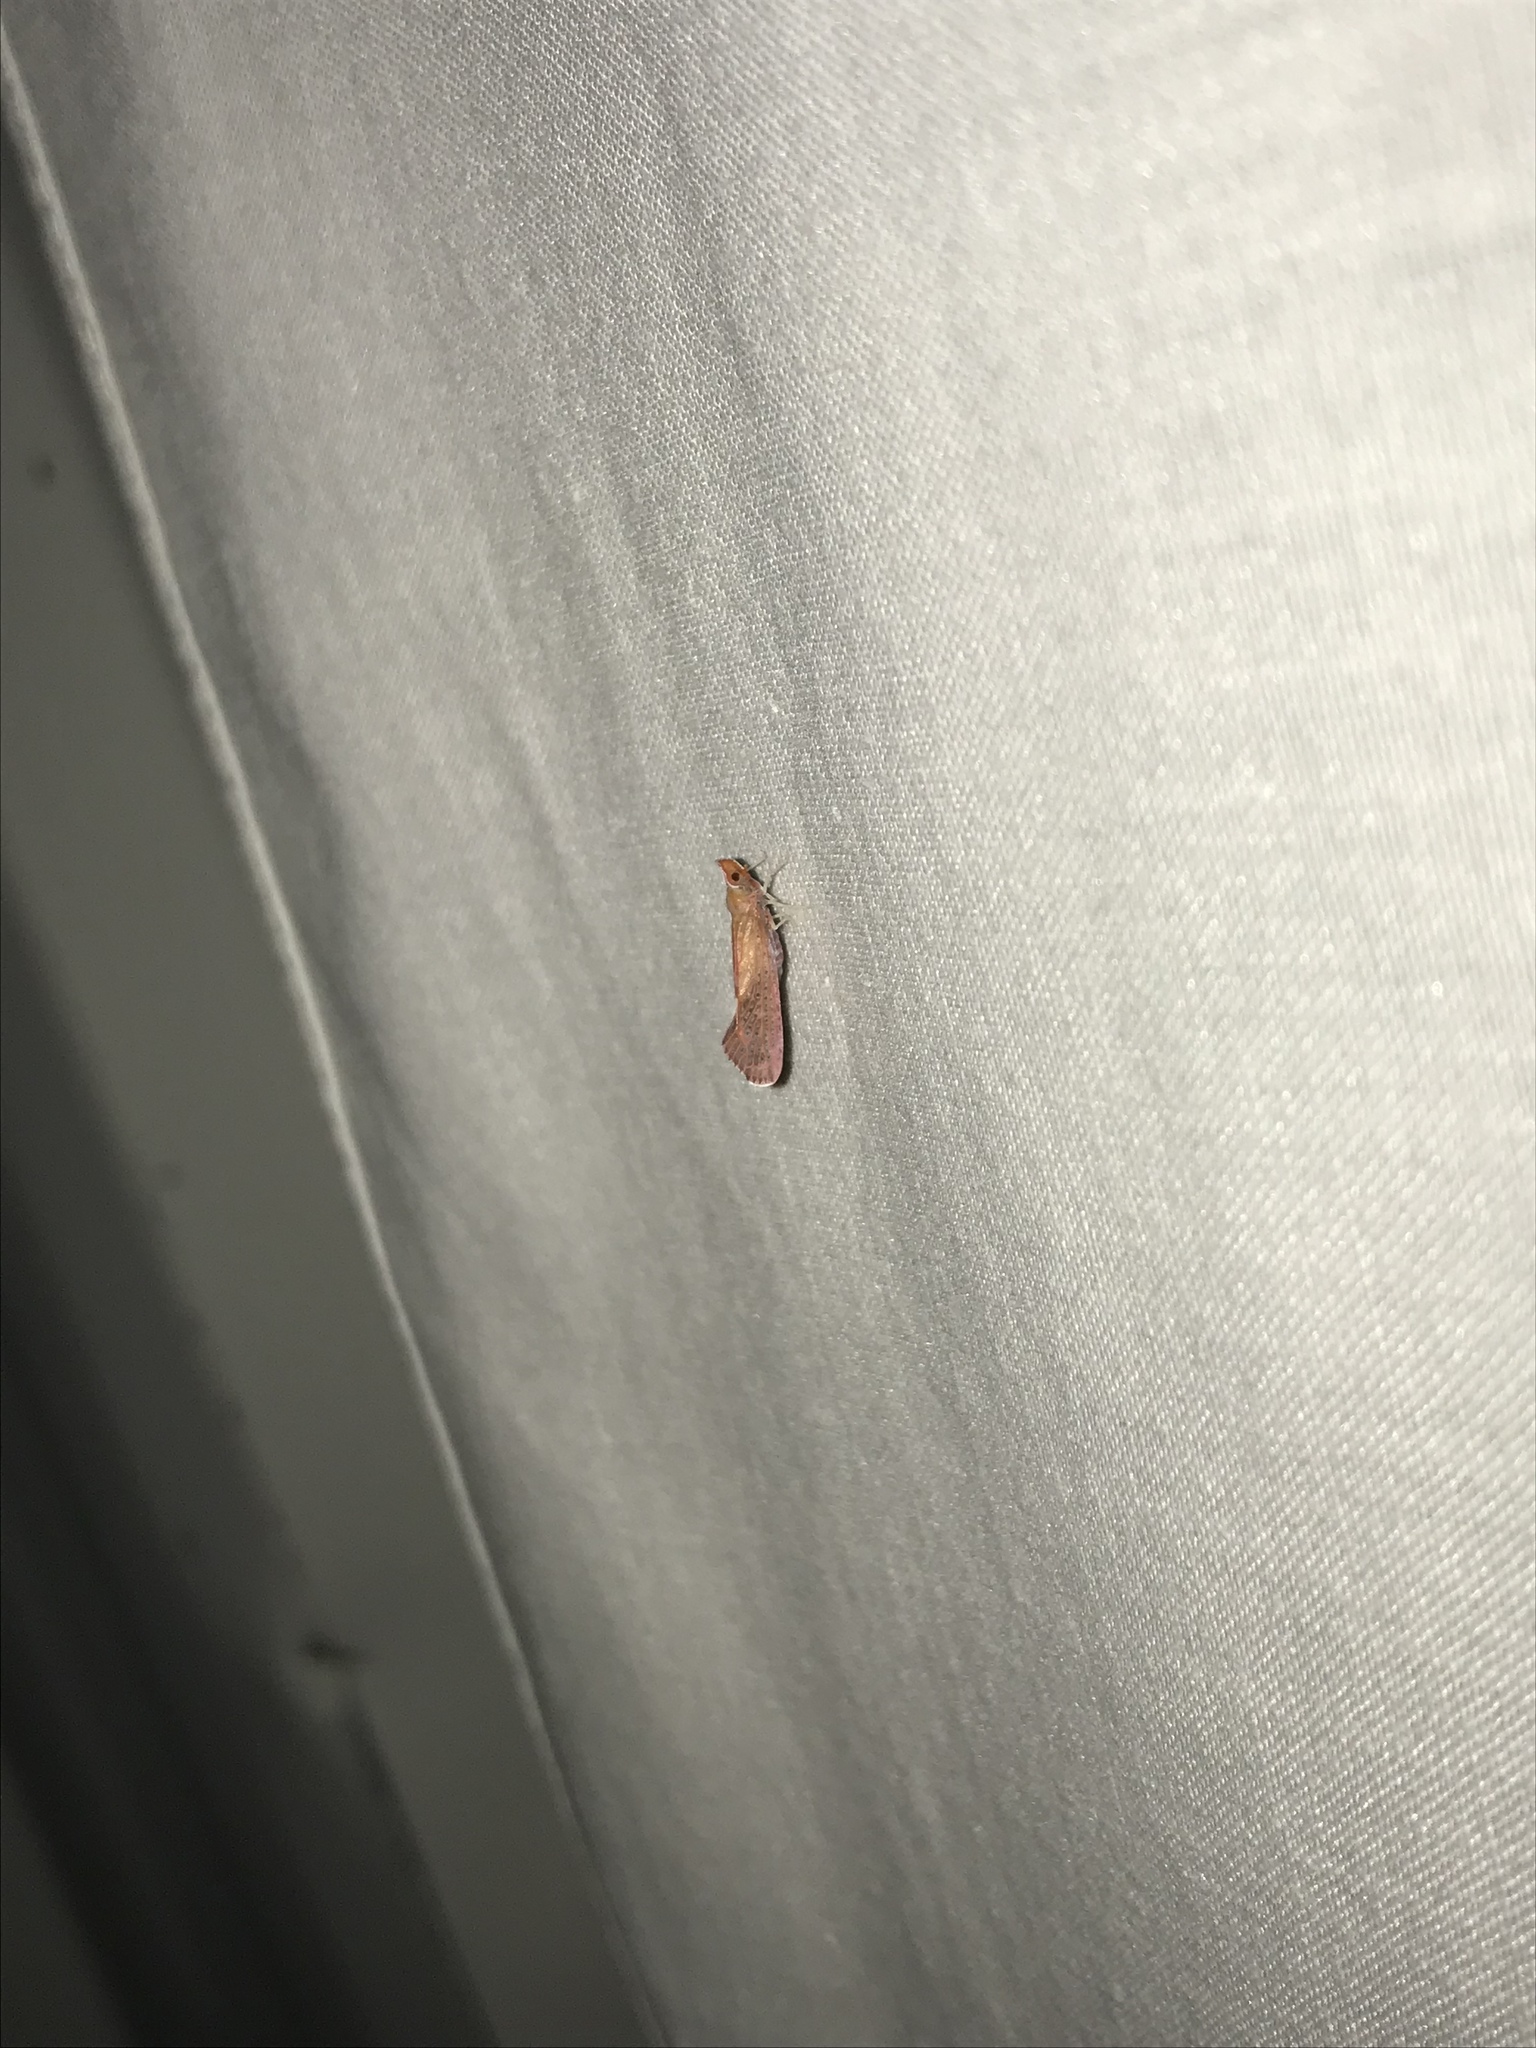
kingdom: Animalia
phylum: Arthropoda
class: Insecta
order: Hemiptera
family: Derbidae
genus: Apache
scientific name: Apache degeeri
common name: Red-fanned planthopper
